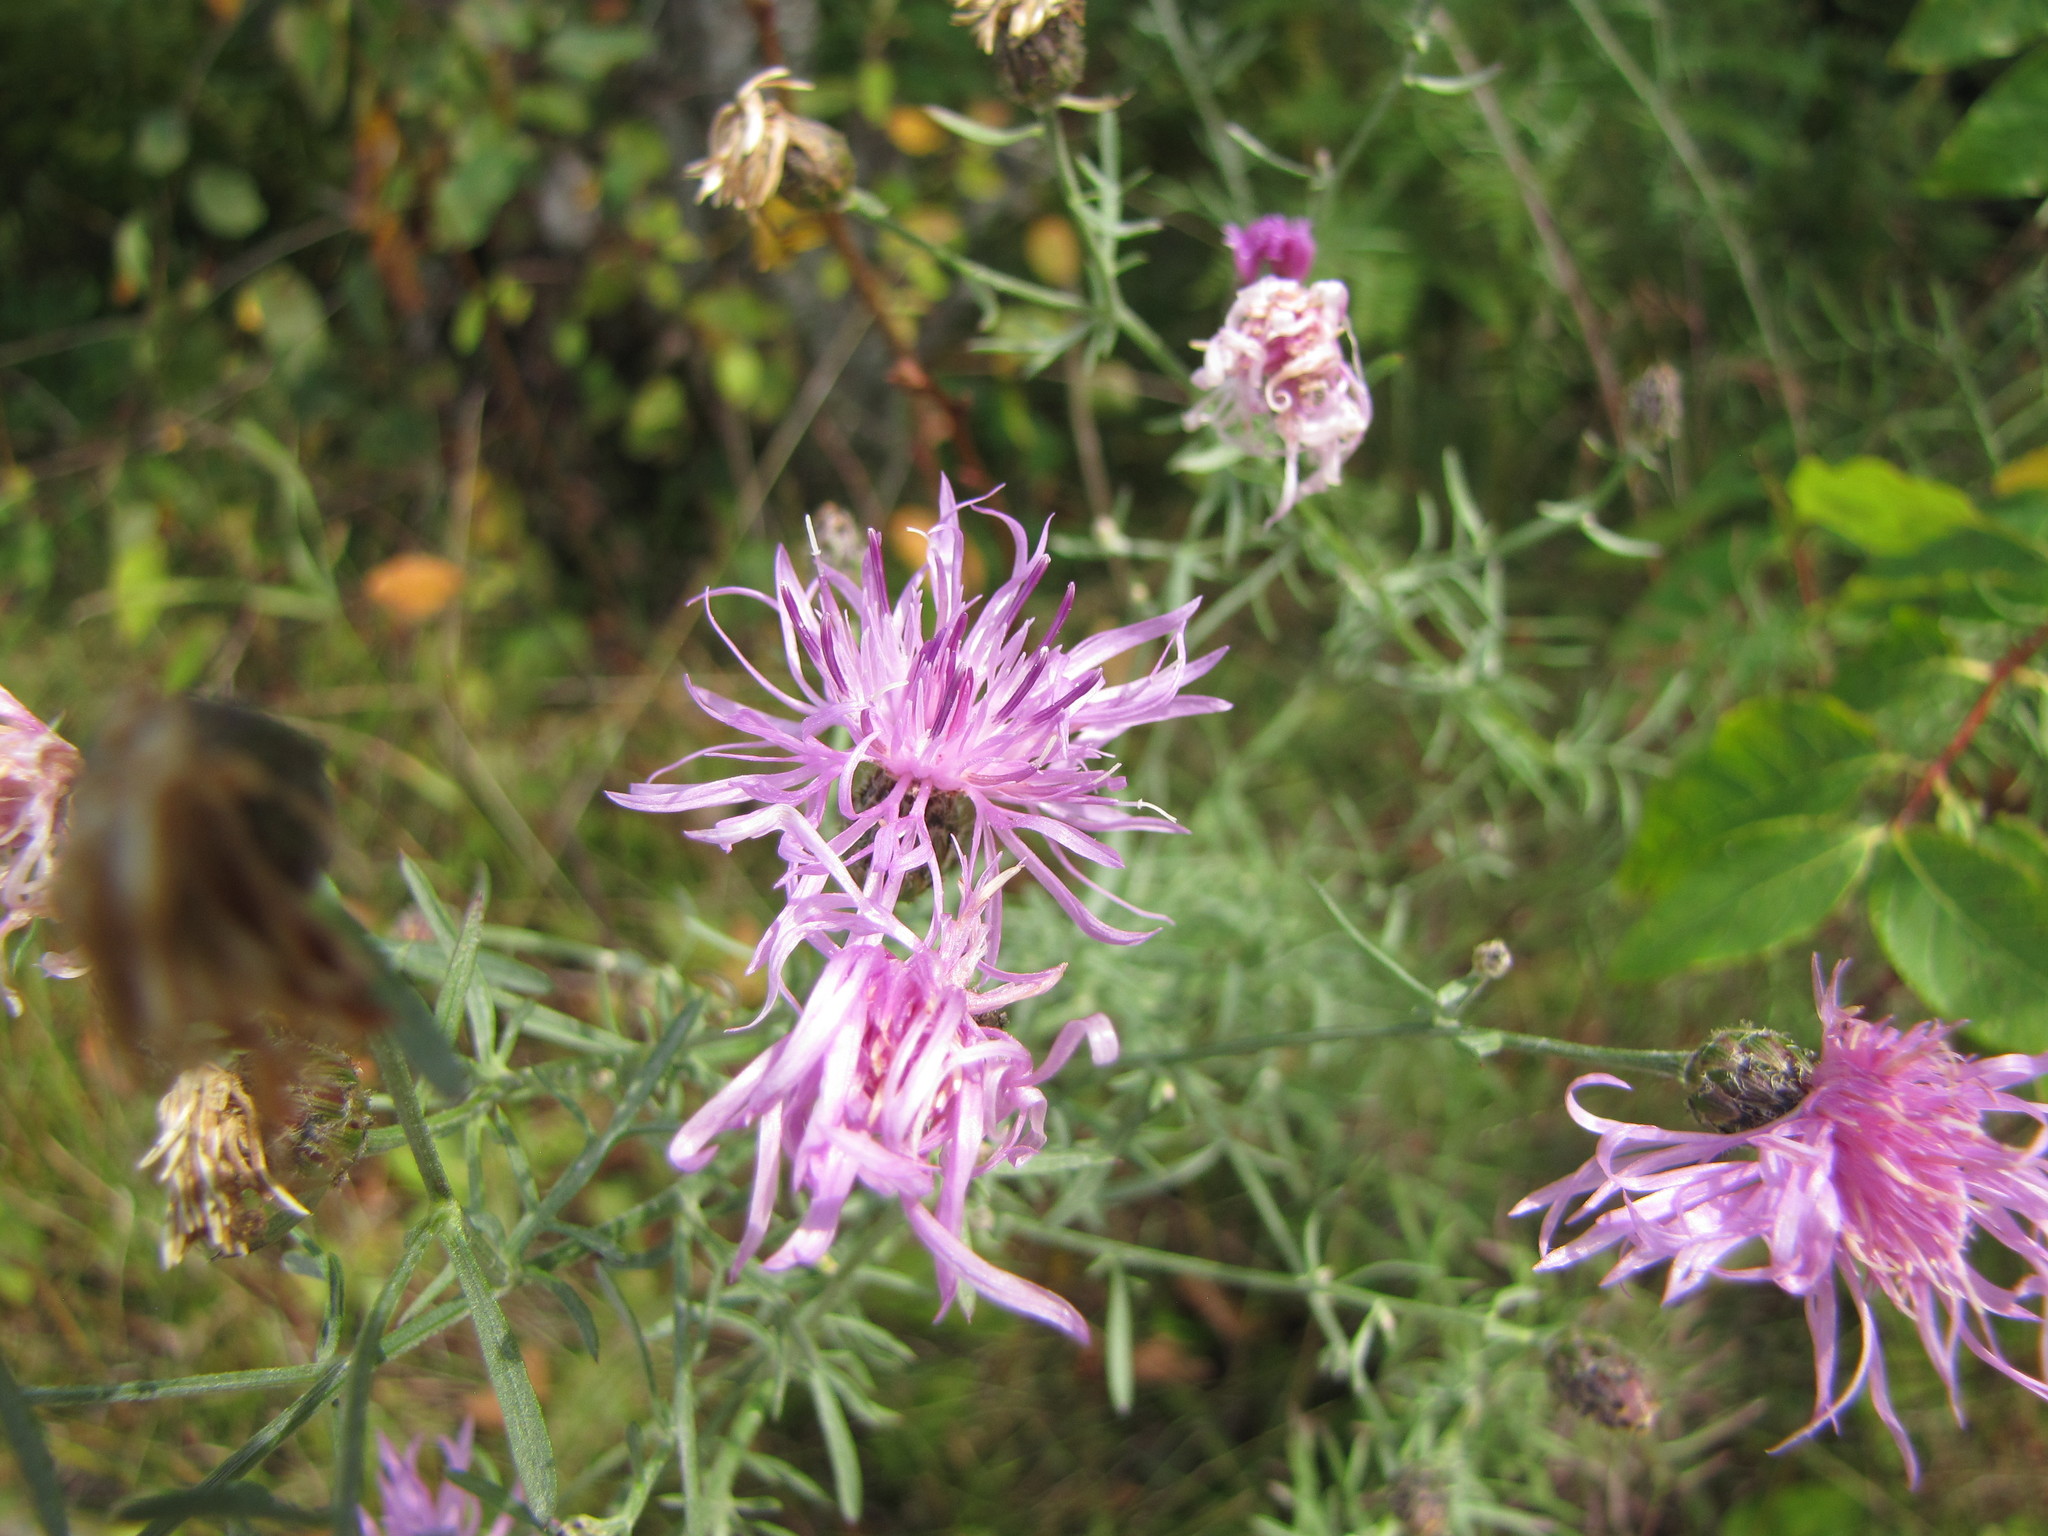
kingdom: Plantae
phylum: Tracheophyta
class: Magnoliopsida
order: Asterales
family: Asteraceae
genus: Centaurea
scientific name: Centaurea stoebe
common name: Spotted knapweed
